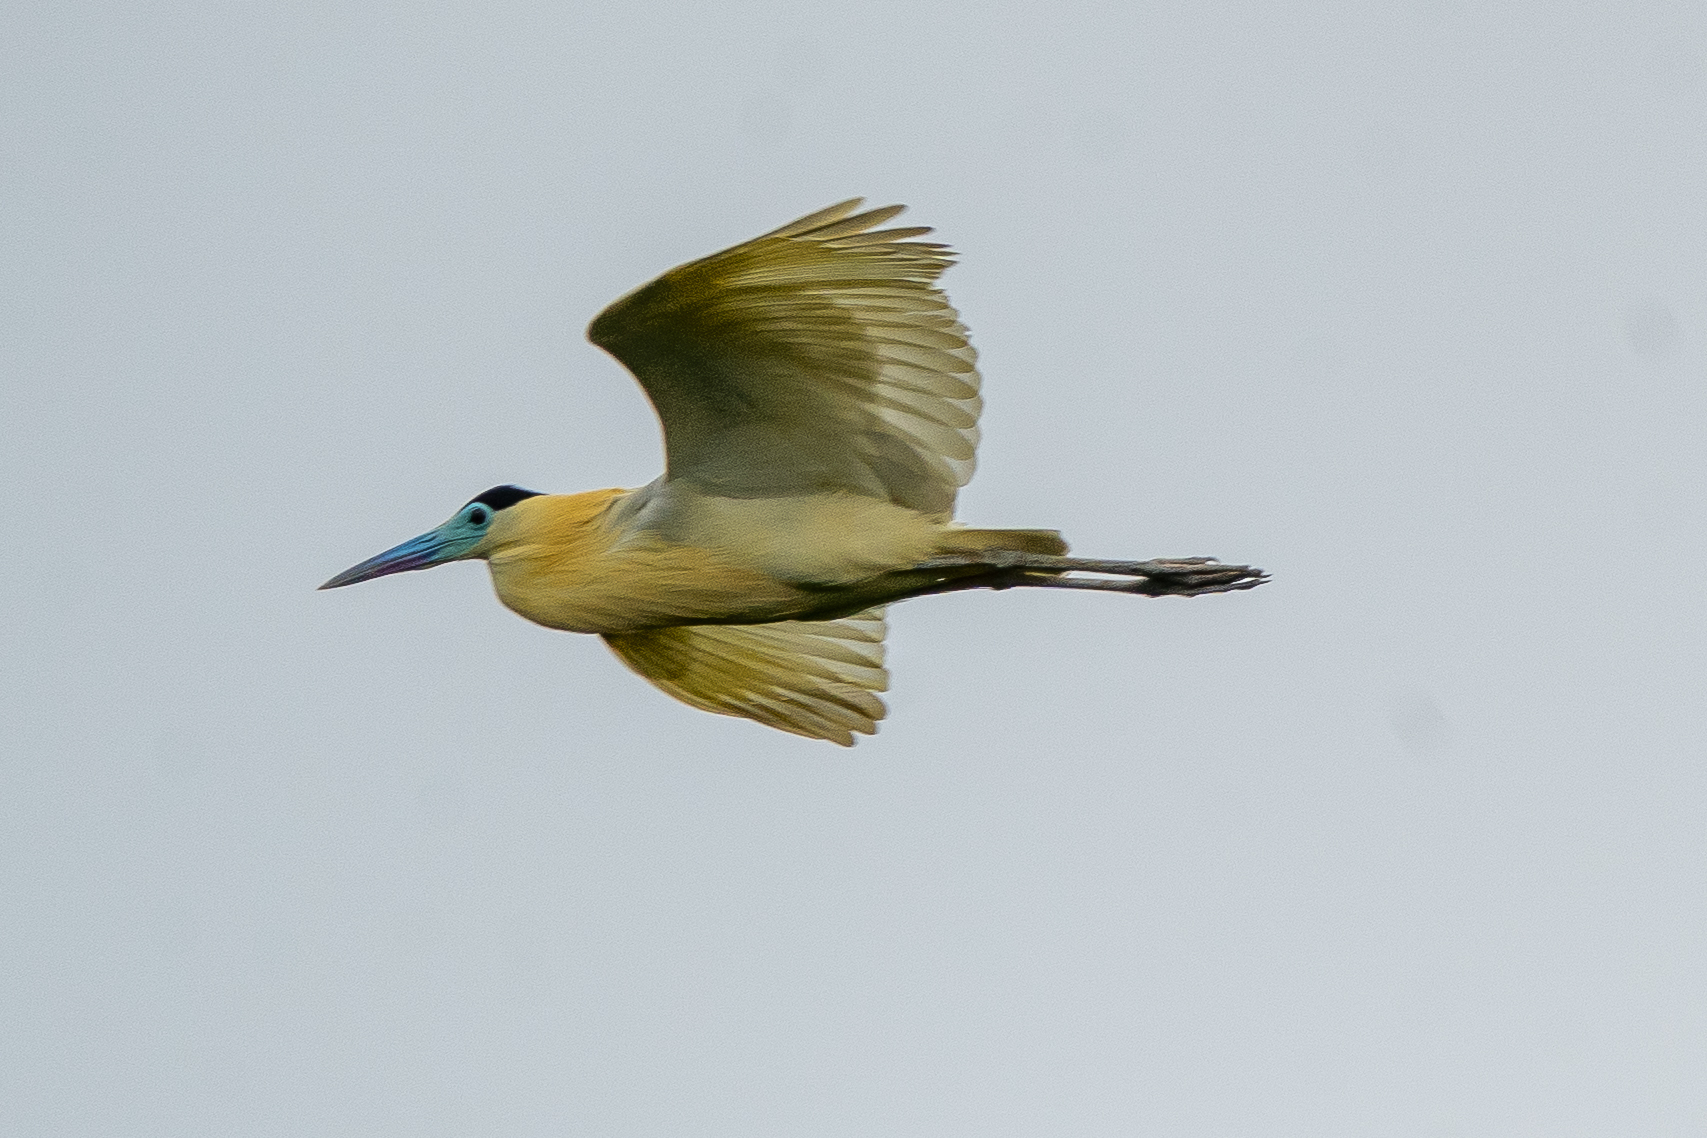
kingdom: Animalia
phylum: Chordata
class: Aves
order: Pelecaniformes
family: Ardeidae
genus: Pilherodius
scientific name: Pilherodius pileatus
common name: Capped heron
